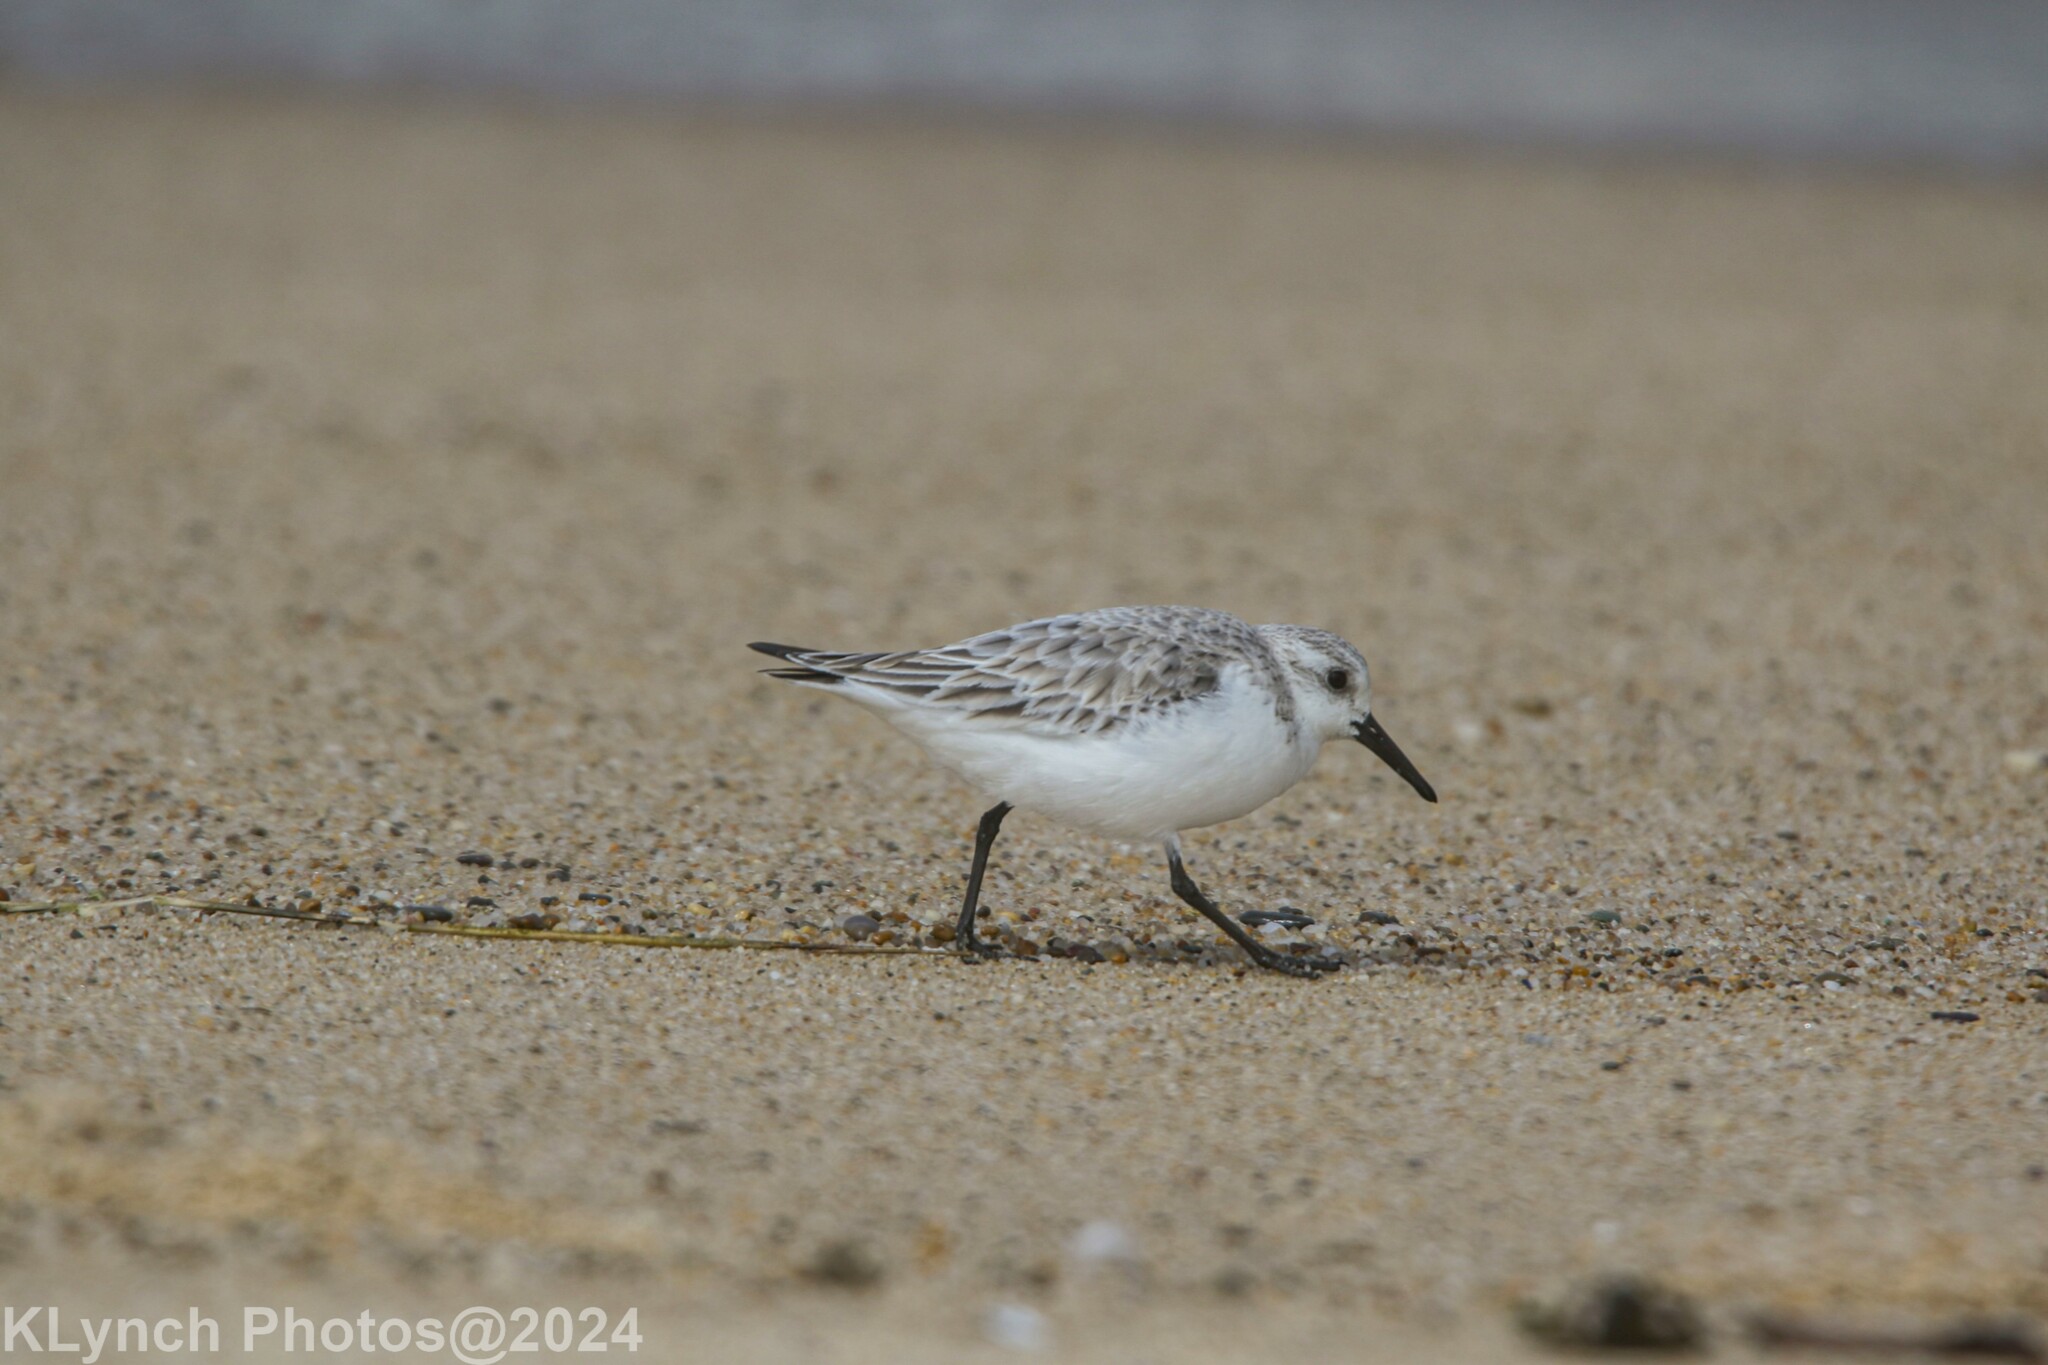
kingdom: Animalia
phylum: Chordata
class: Aves
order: Charadriiformes
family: Scolopacidae
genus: Calidris
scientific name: Calidris alba
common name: Sanderling
